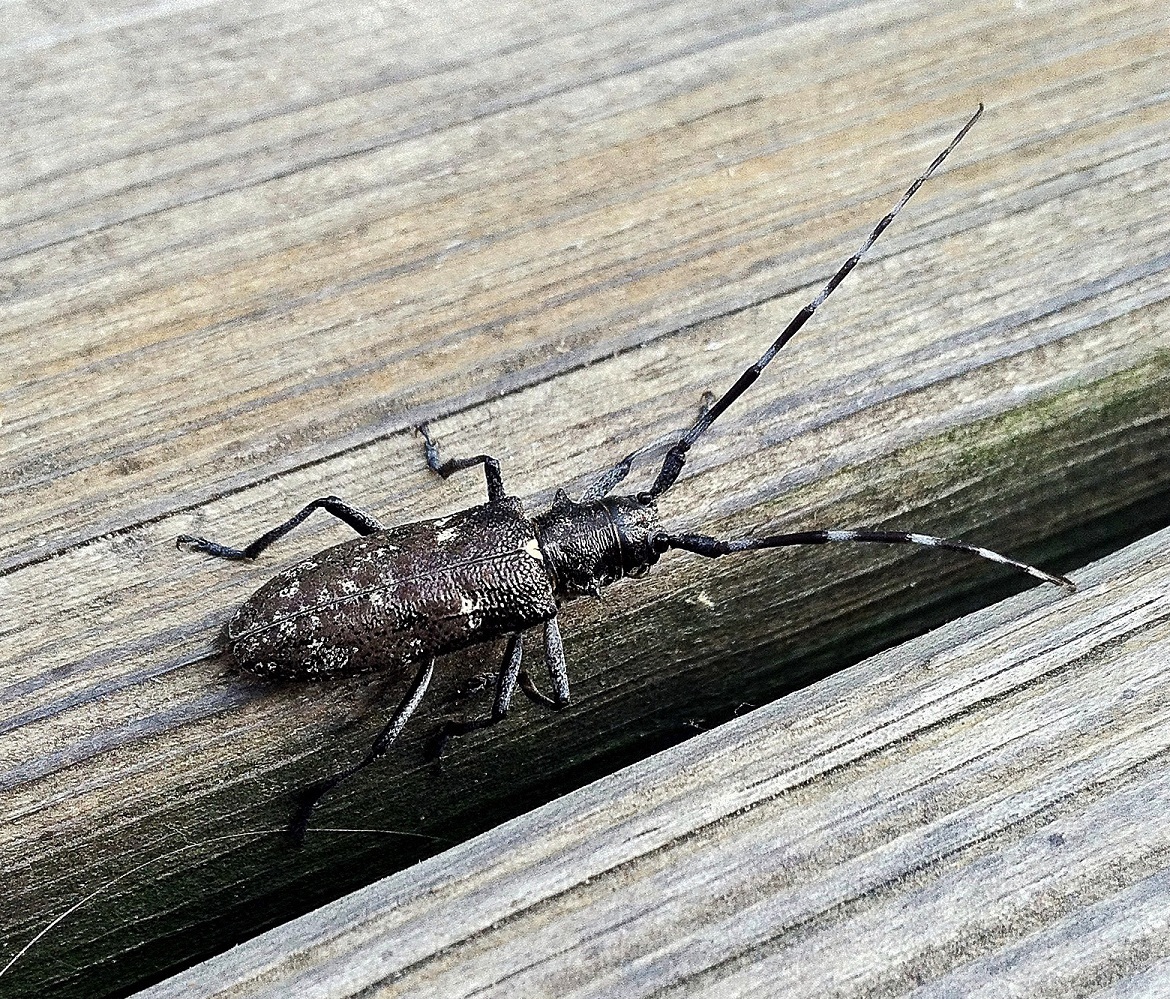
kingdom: Animalia
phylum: Arthropoda
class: Insecta
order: Coleoptera
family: Cerambycidae
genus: Monochamus
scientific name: Monochamus scutellatus
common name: White-spotted sawyer beetle
